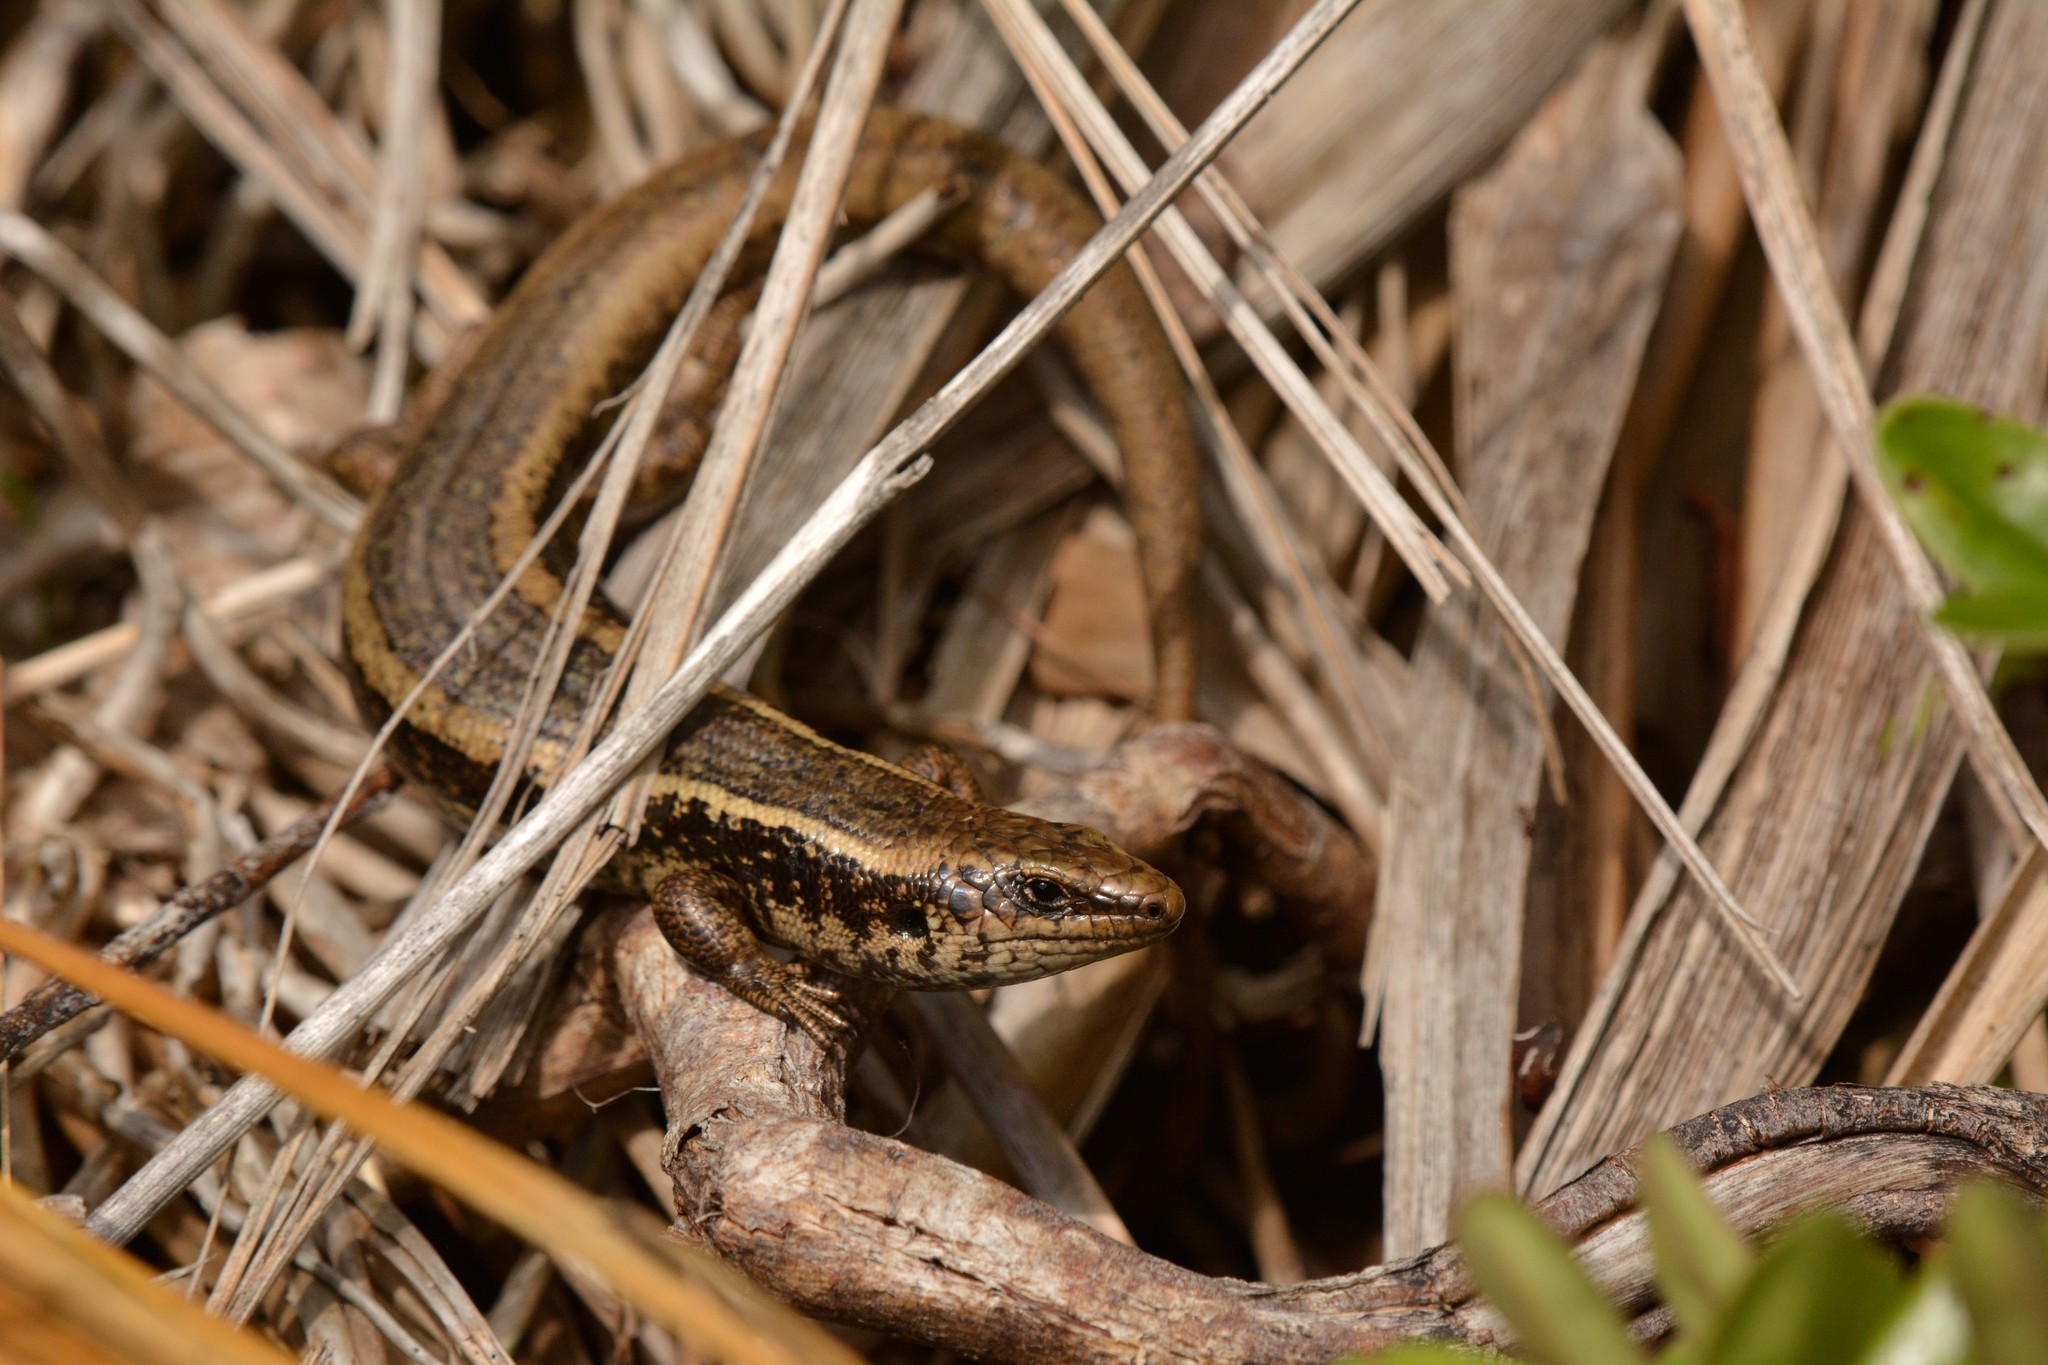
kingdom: Animalia
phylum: Chordata
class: Squamata
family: Scincidae
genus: Oligosoma
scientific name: Oligosoma kokowai
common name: Northern spotted skink
